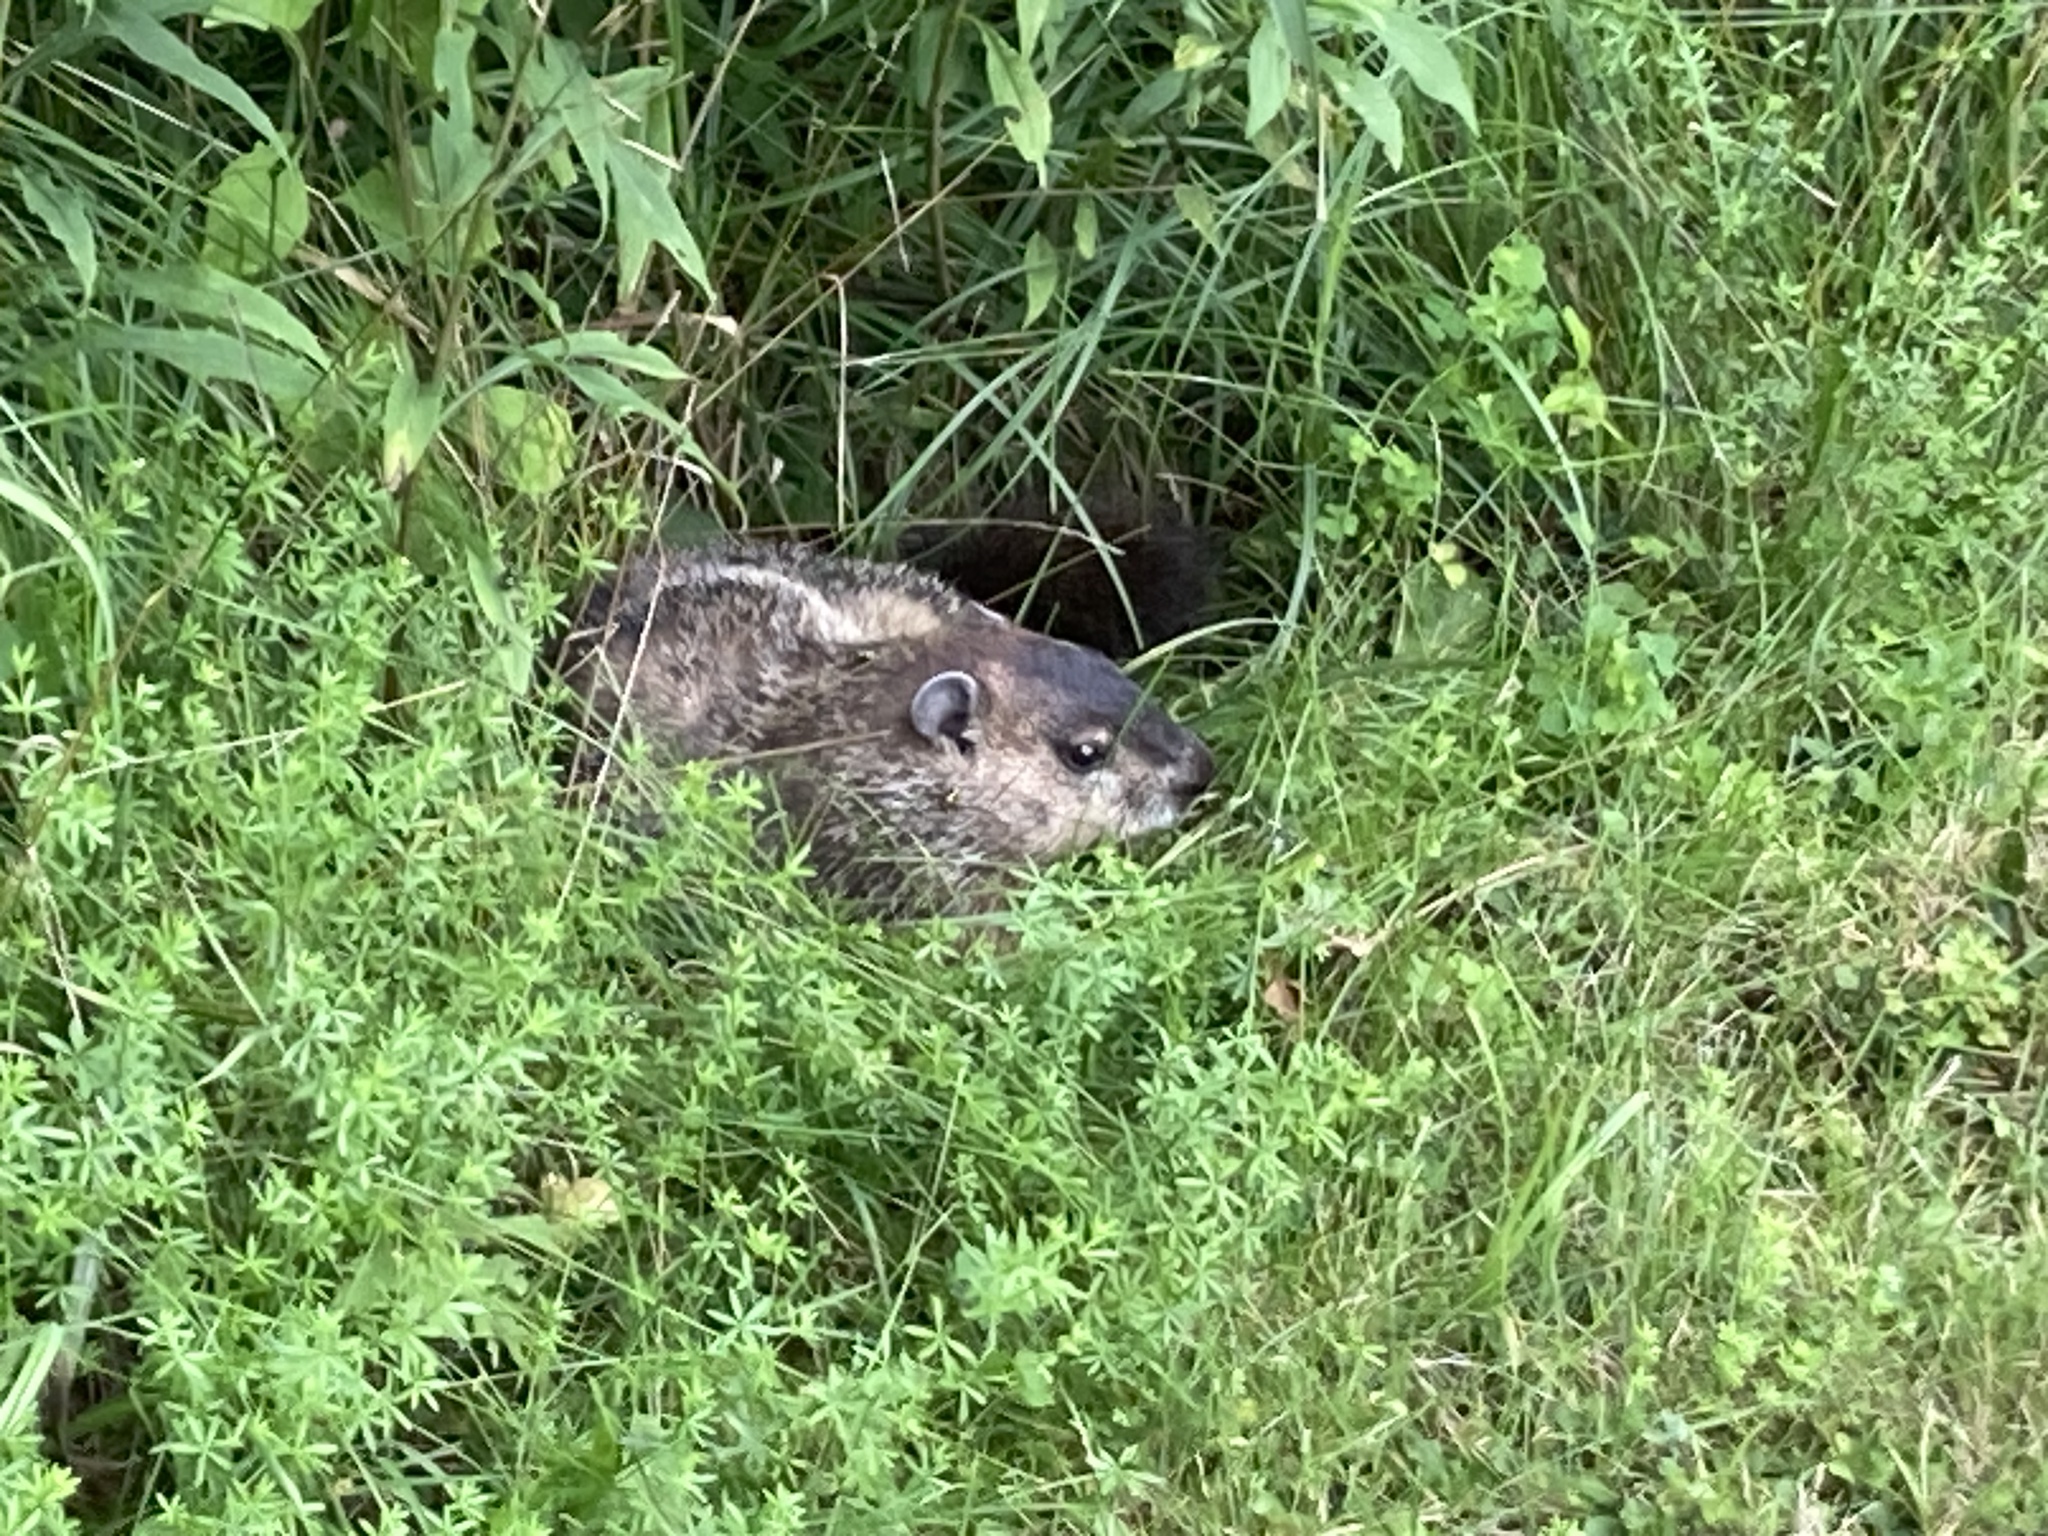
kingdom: Animalia
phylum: Chordata
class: Mammalia
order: Rodentia
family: Sciuridae
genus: Marmota
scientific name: Marmota monax
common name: Groundhog
